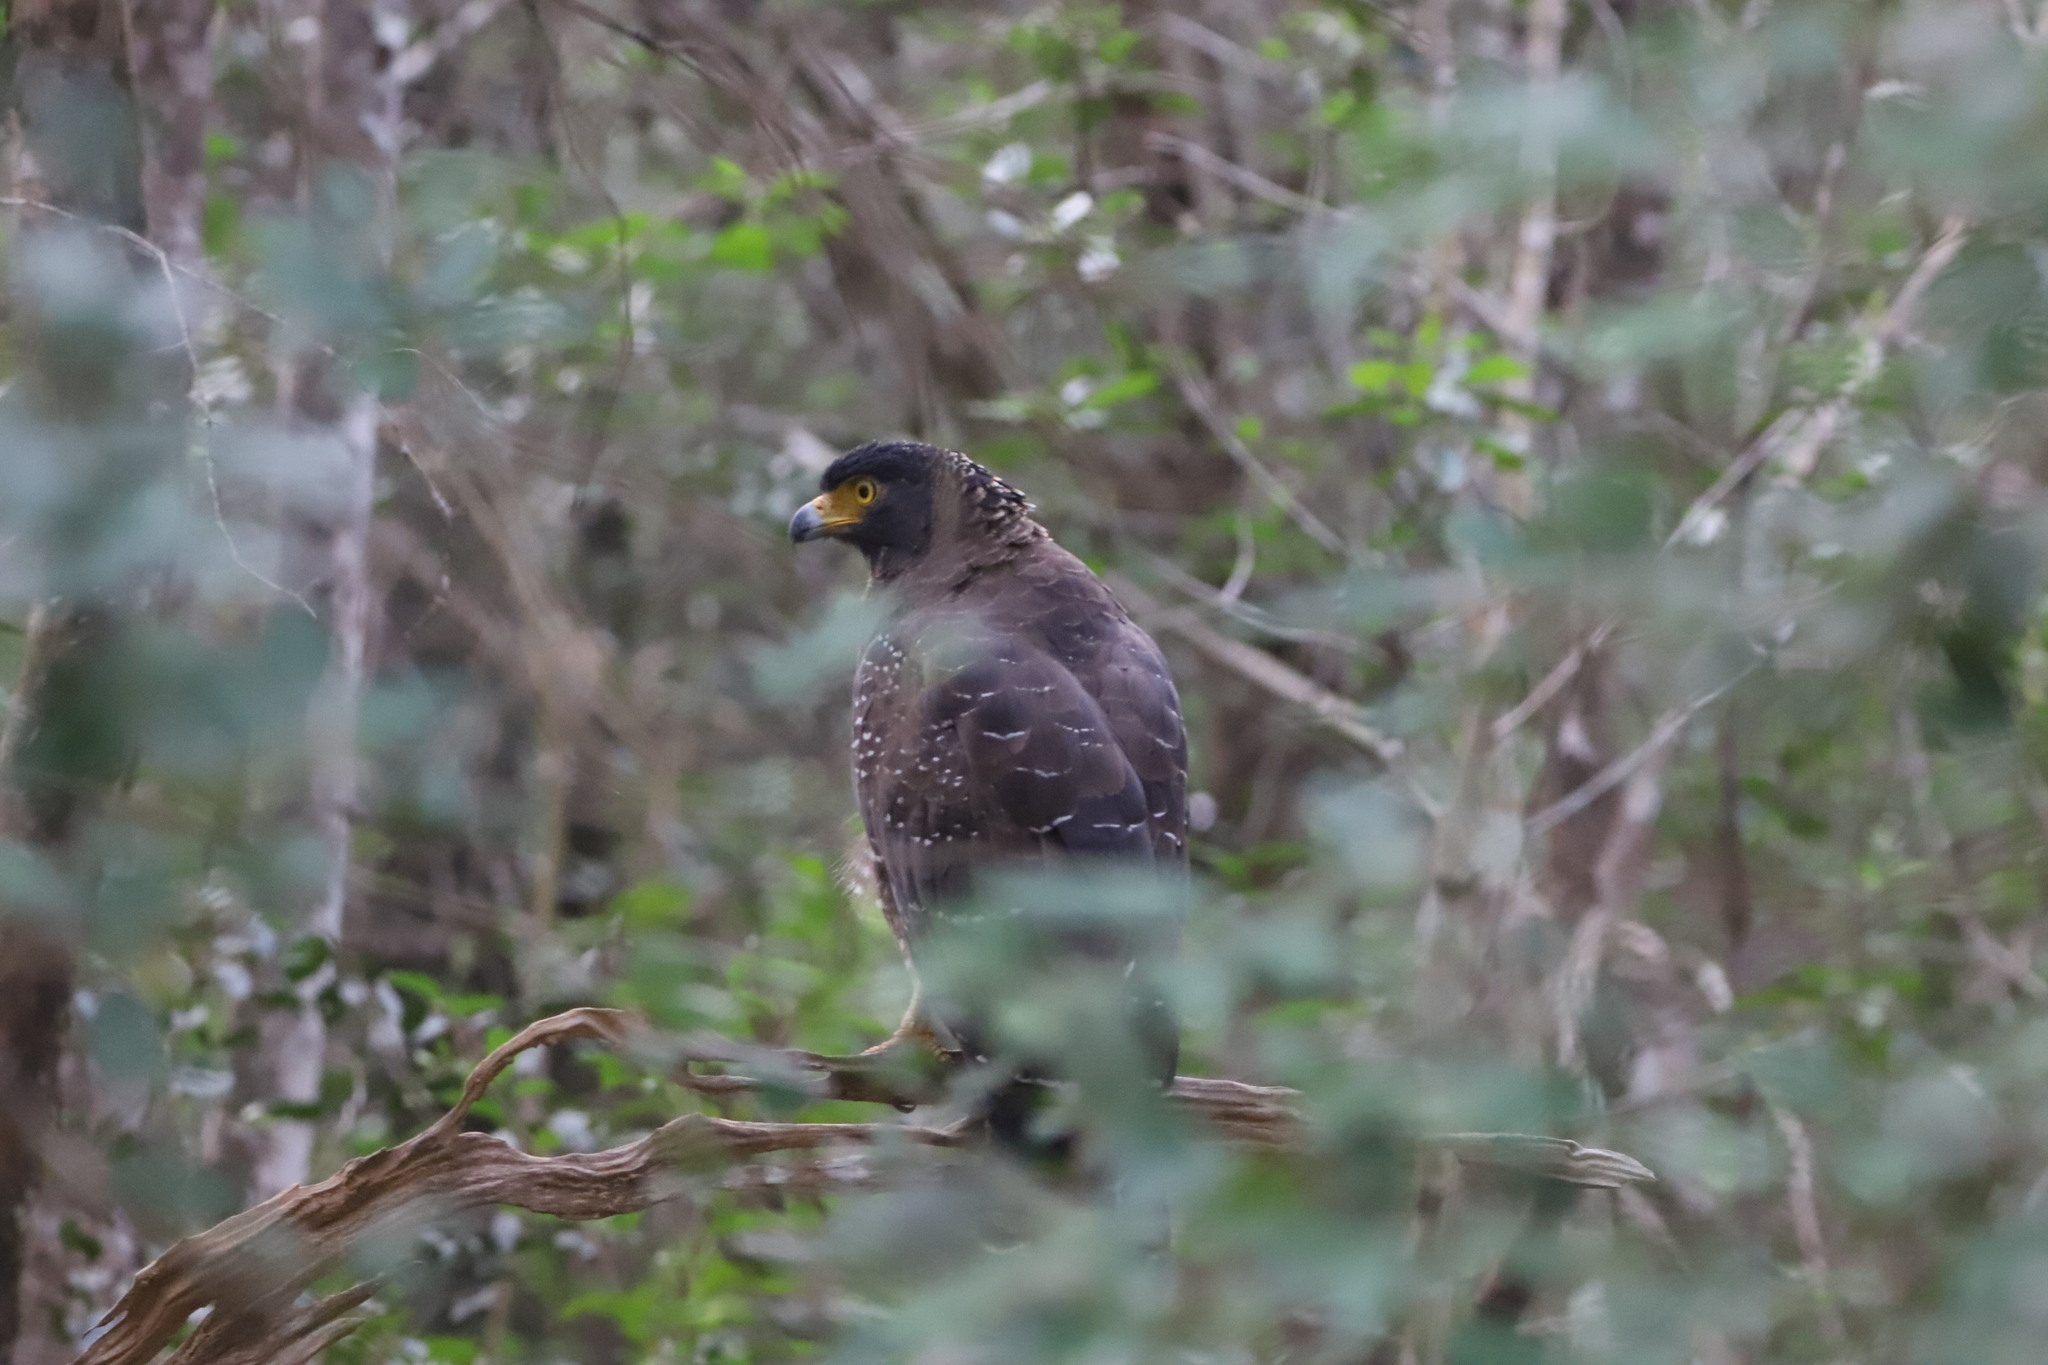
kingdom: Animalia
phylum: Chordata
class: Aves
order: Accipitriformes
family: Accipitridae
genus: Spilornis
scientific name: Spilornis cheela
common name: Crested serpent eagle
